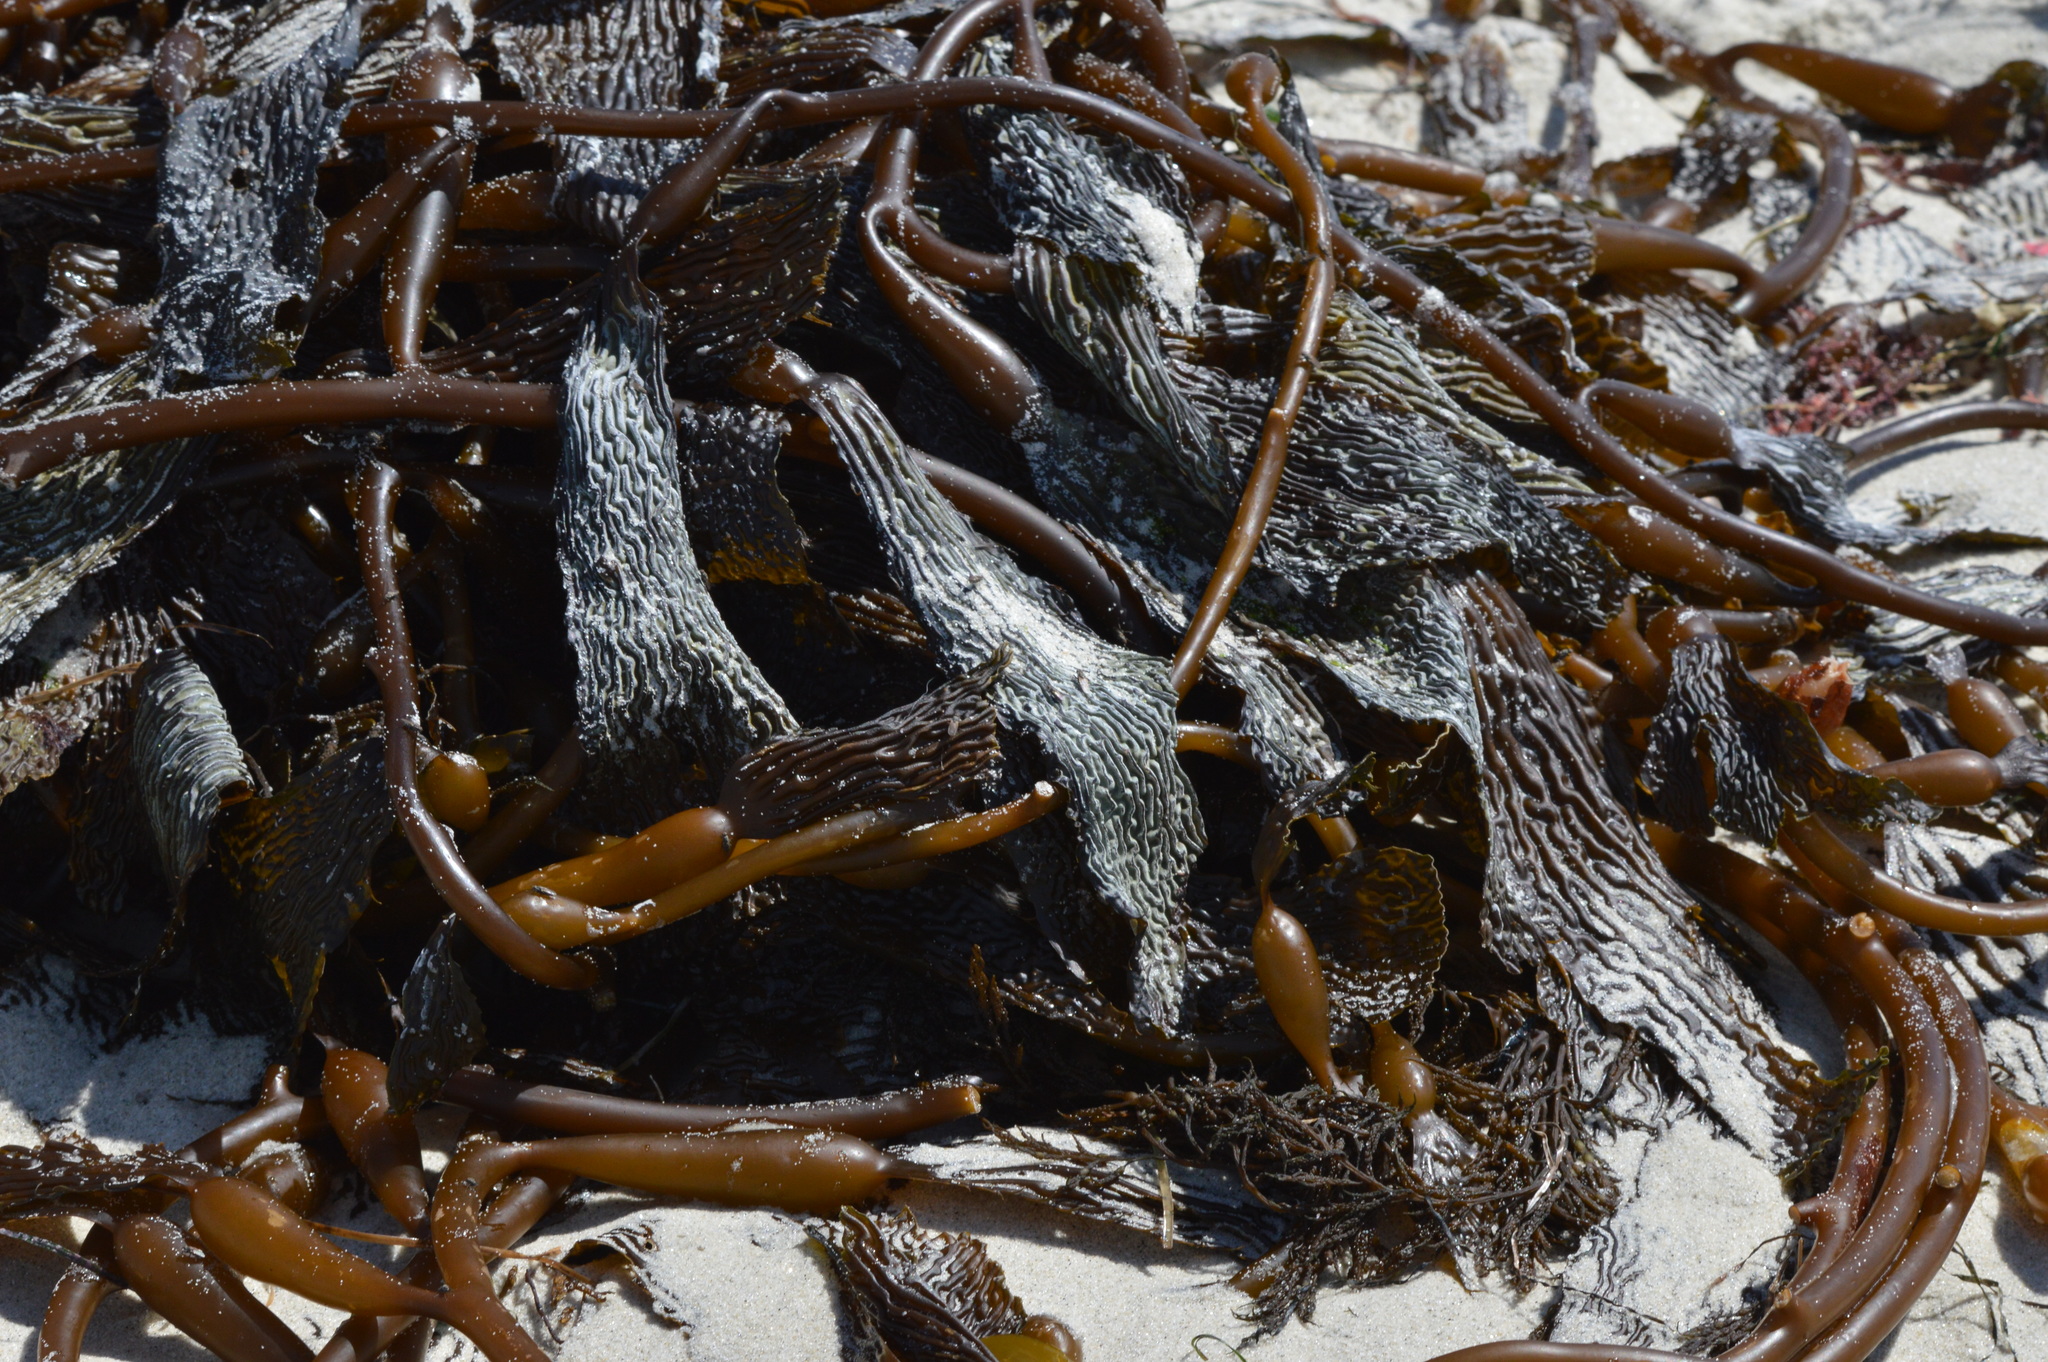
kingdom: Chromista
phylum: Ochrophyta
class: Phaeophyceae
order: Laminariales
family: Laminariaceae
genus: Macrocystis
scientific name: Macrocystis pyrifera
